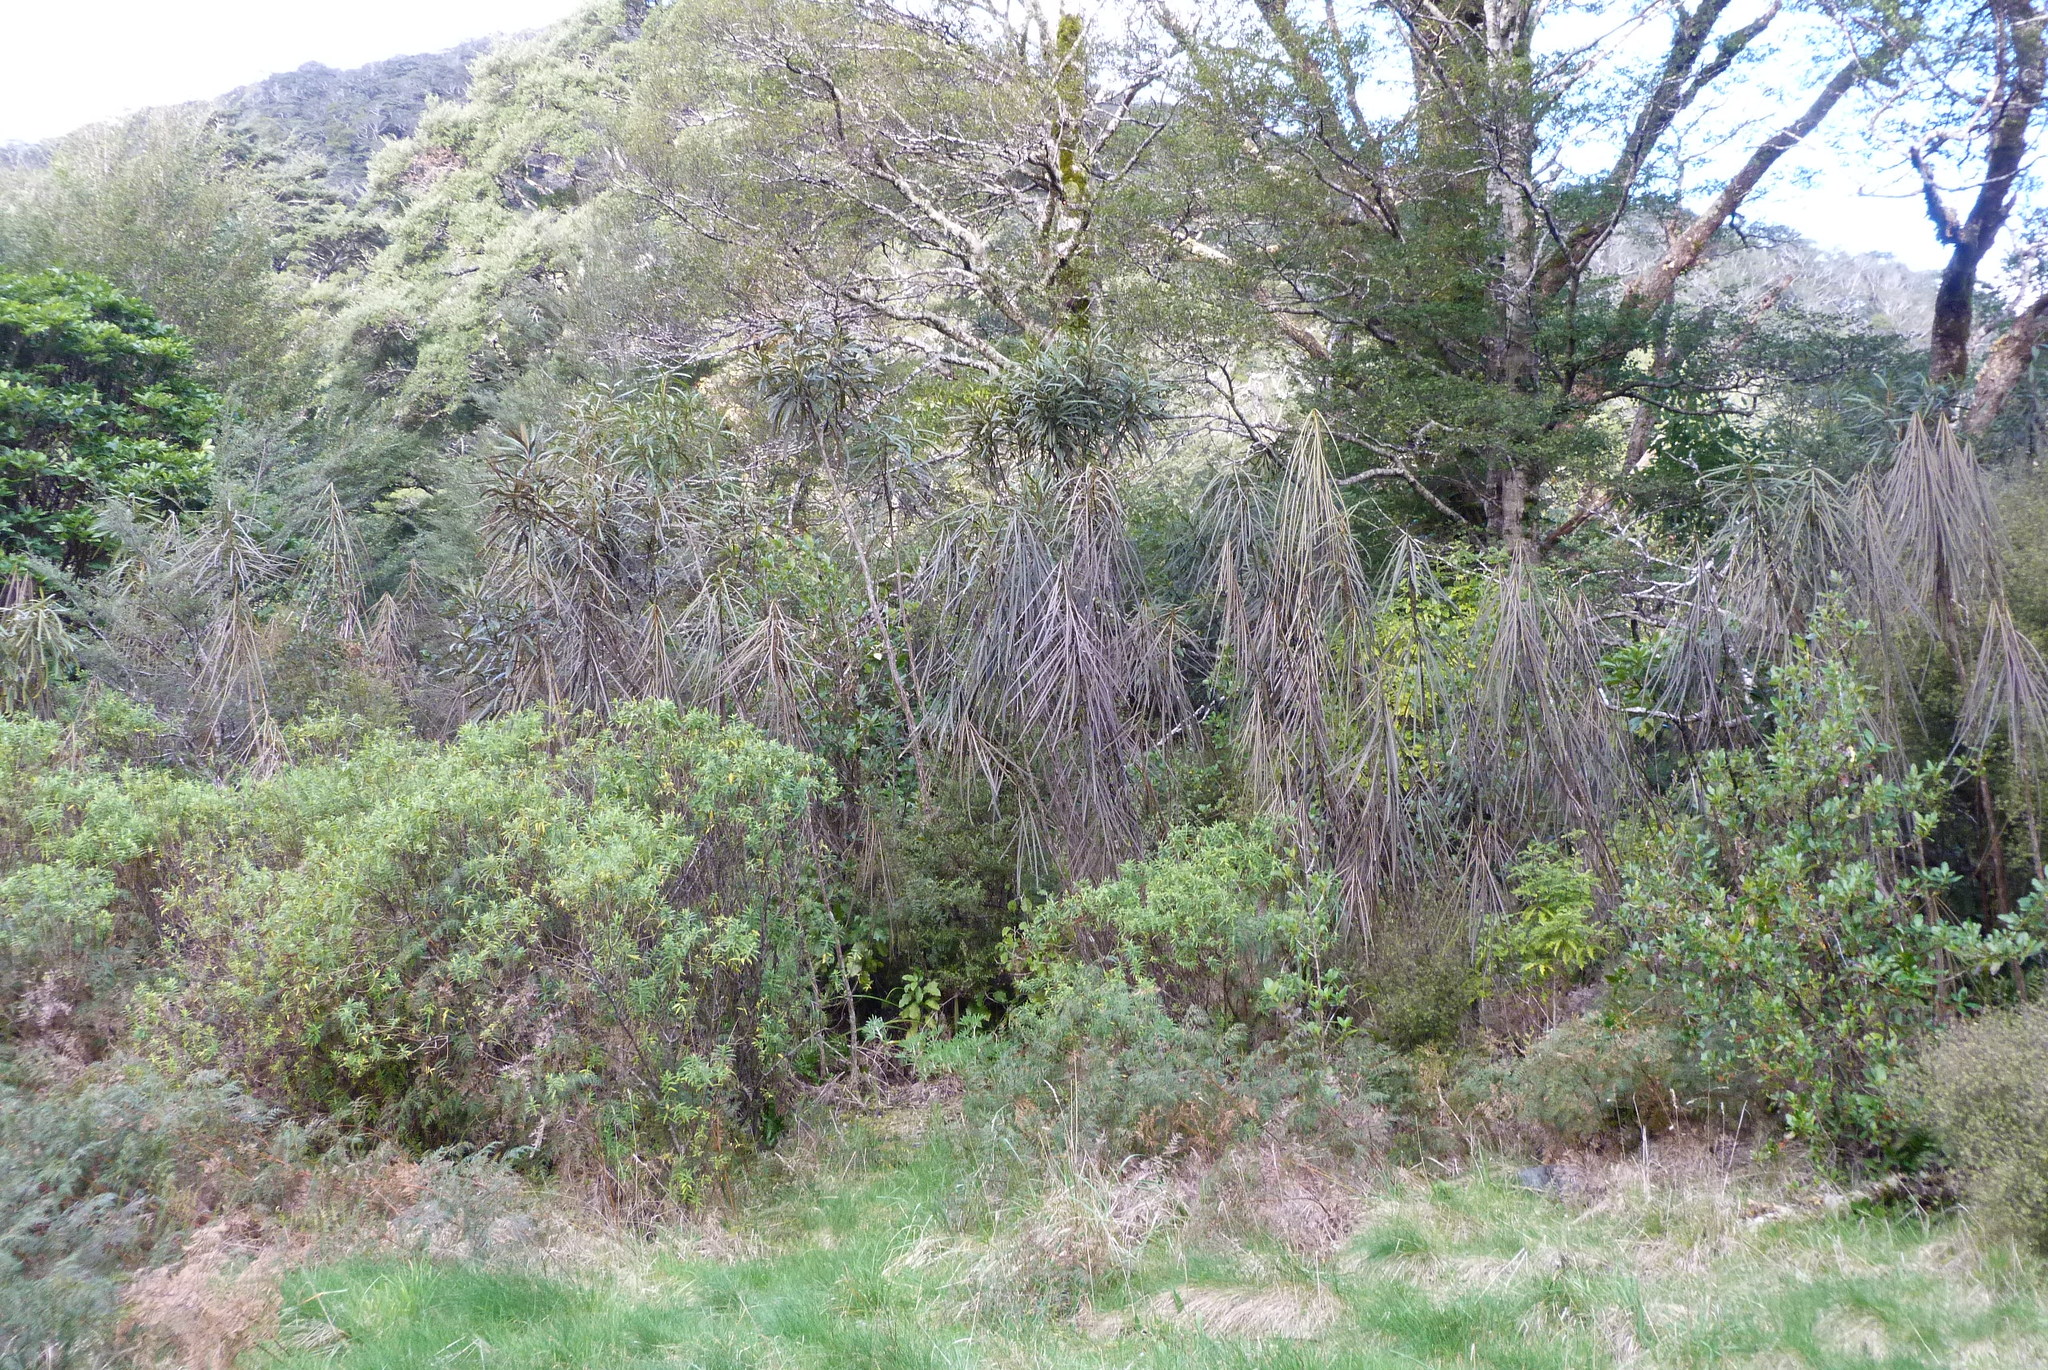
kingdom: Plantae
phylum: Tracheophyta
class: Magnoliopsida
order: Apiales
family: Araliaceae
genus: Pseudopanax
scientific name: Pseudopanax crassifolius
